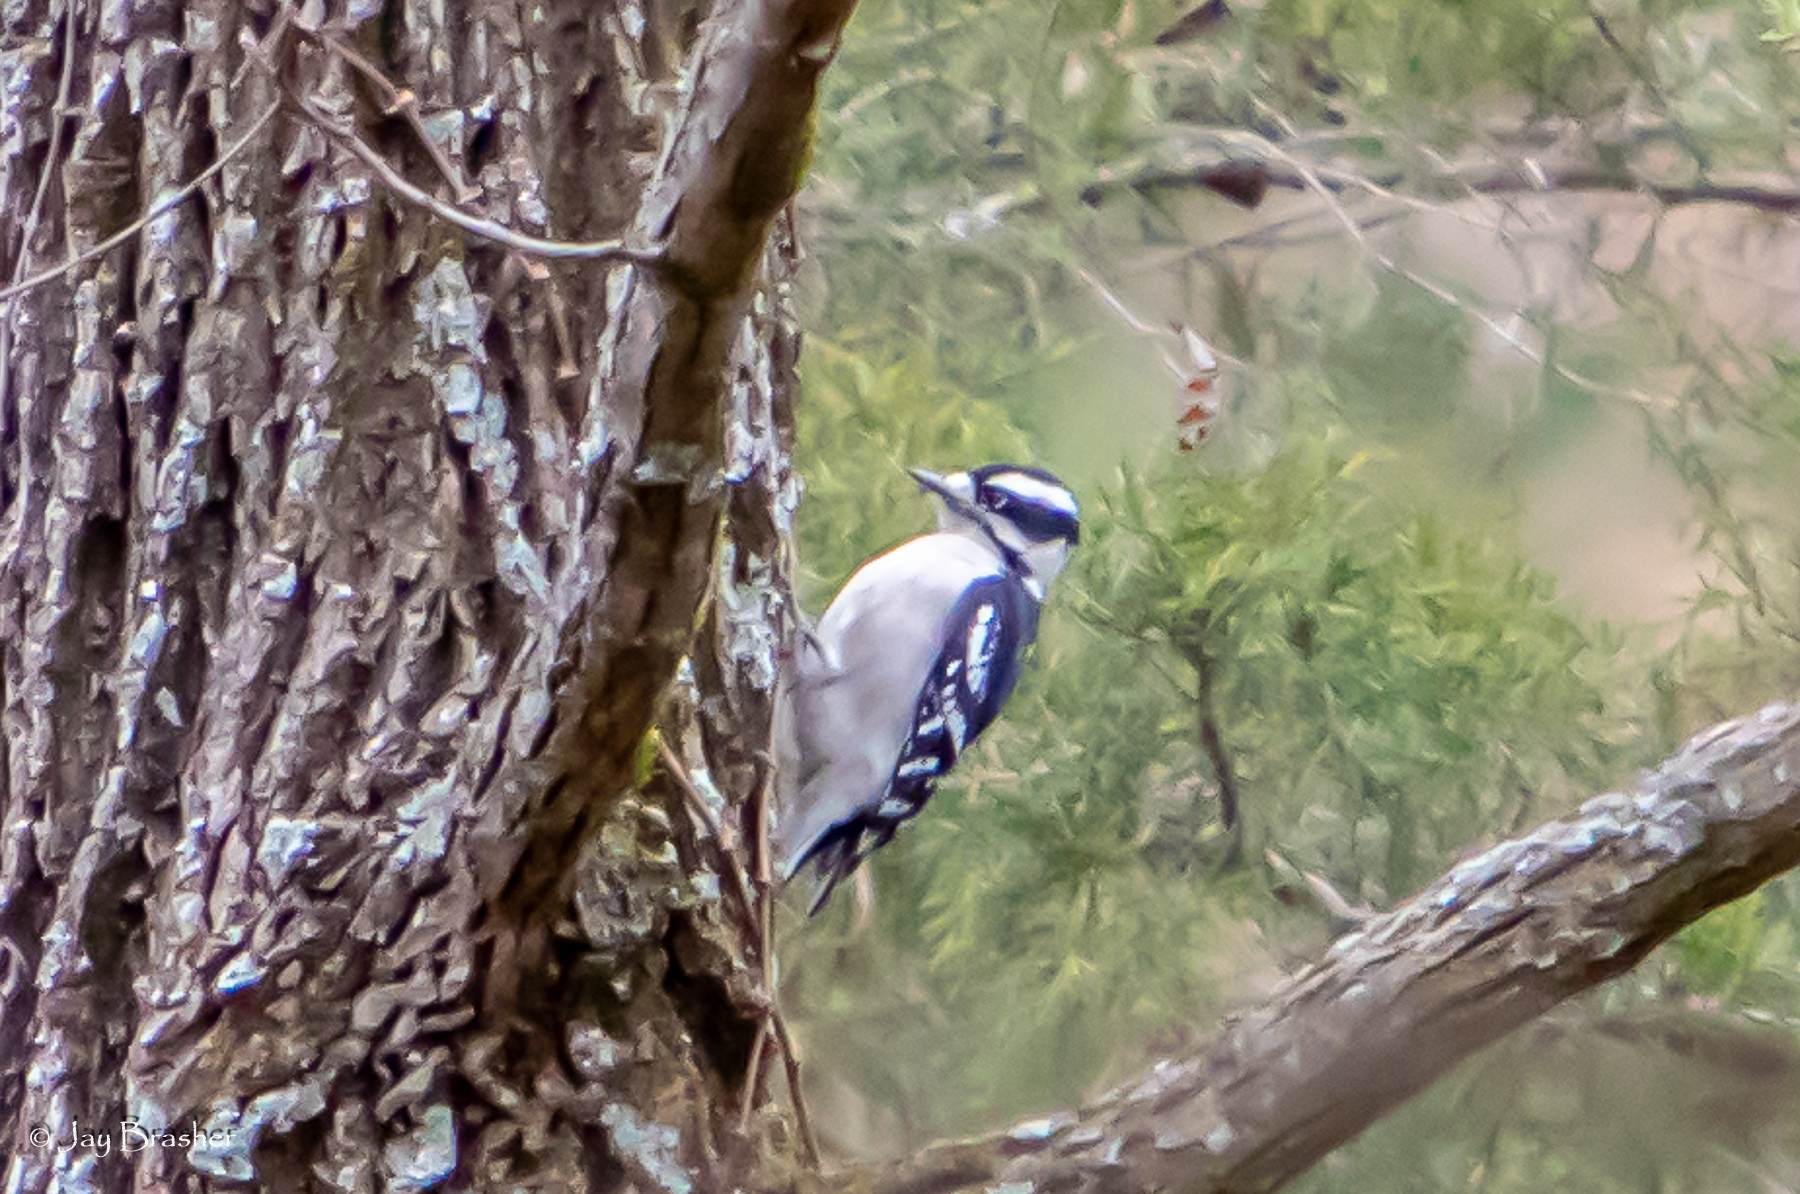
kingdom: Animalia
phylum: Chordata
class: Aves
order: Piciformes
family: Picidae
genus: Dryobates
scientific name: Dryobates pubescens
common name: Downy woodpecker
